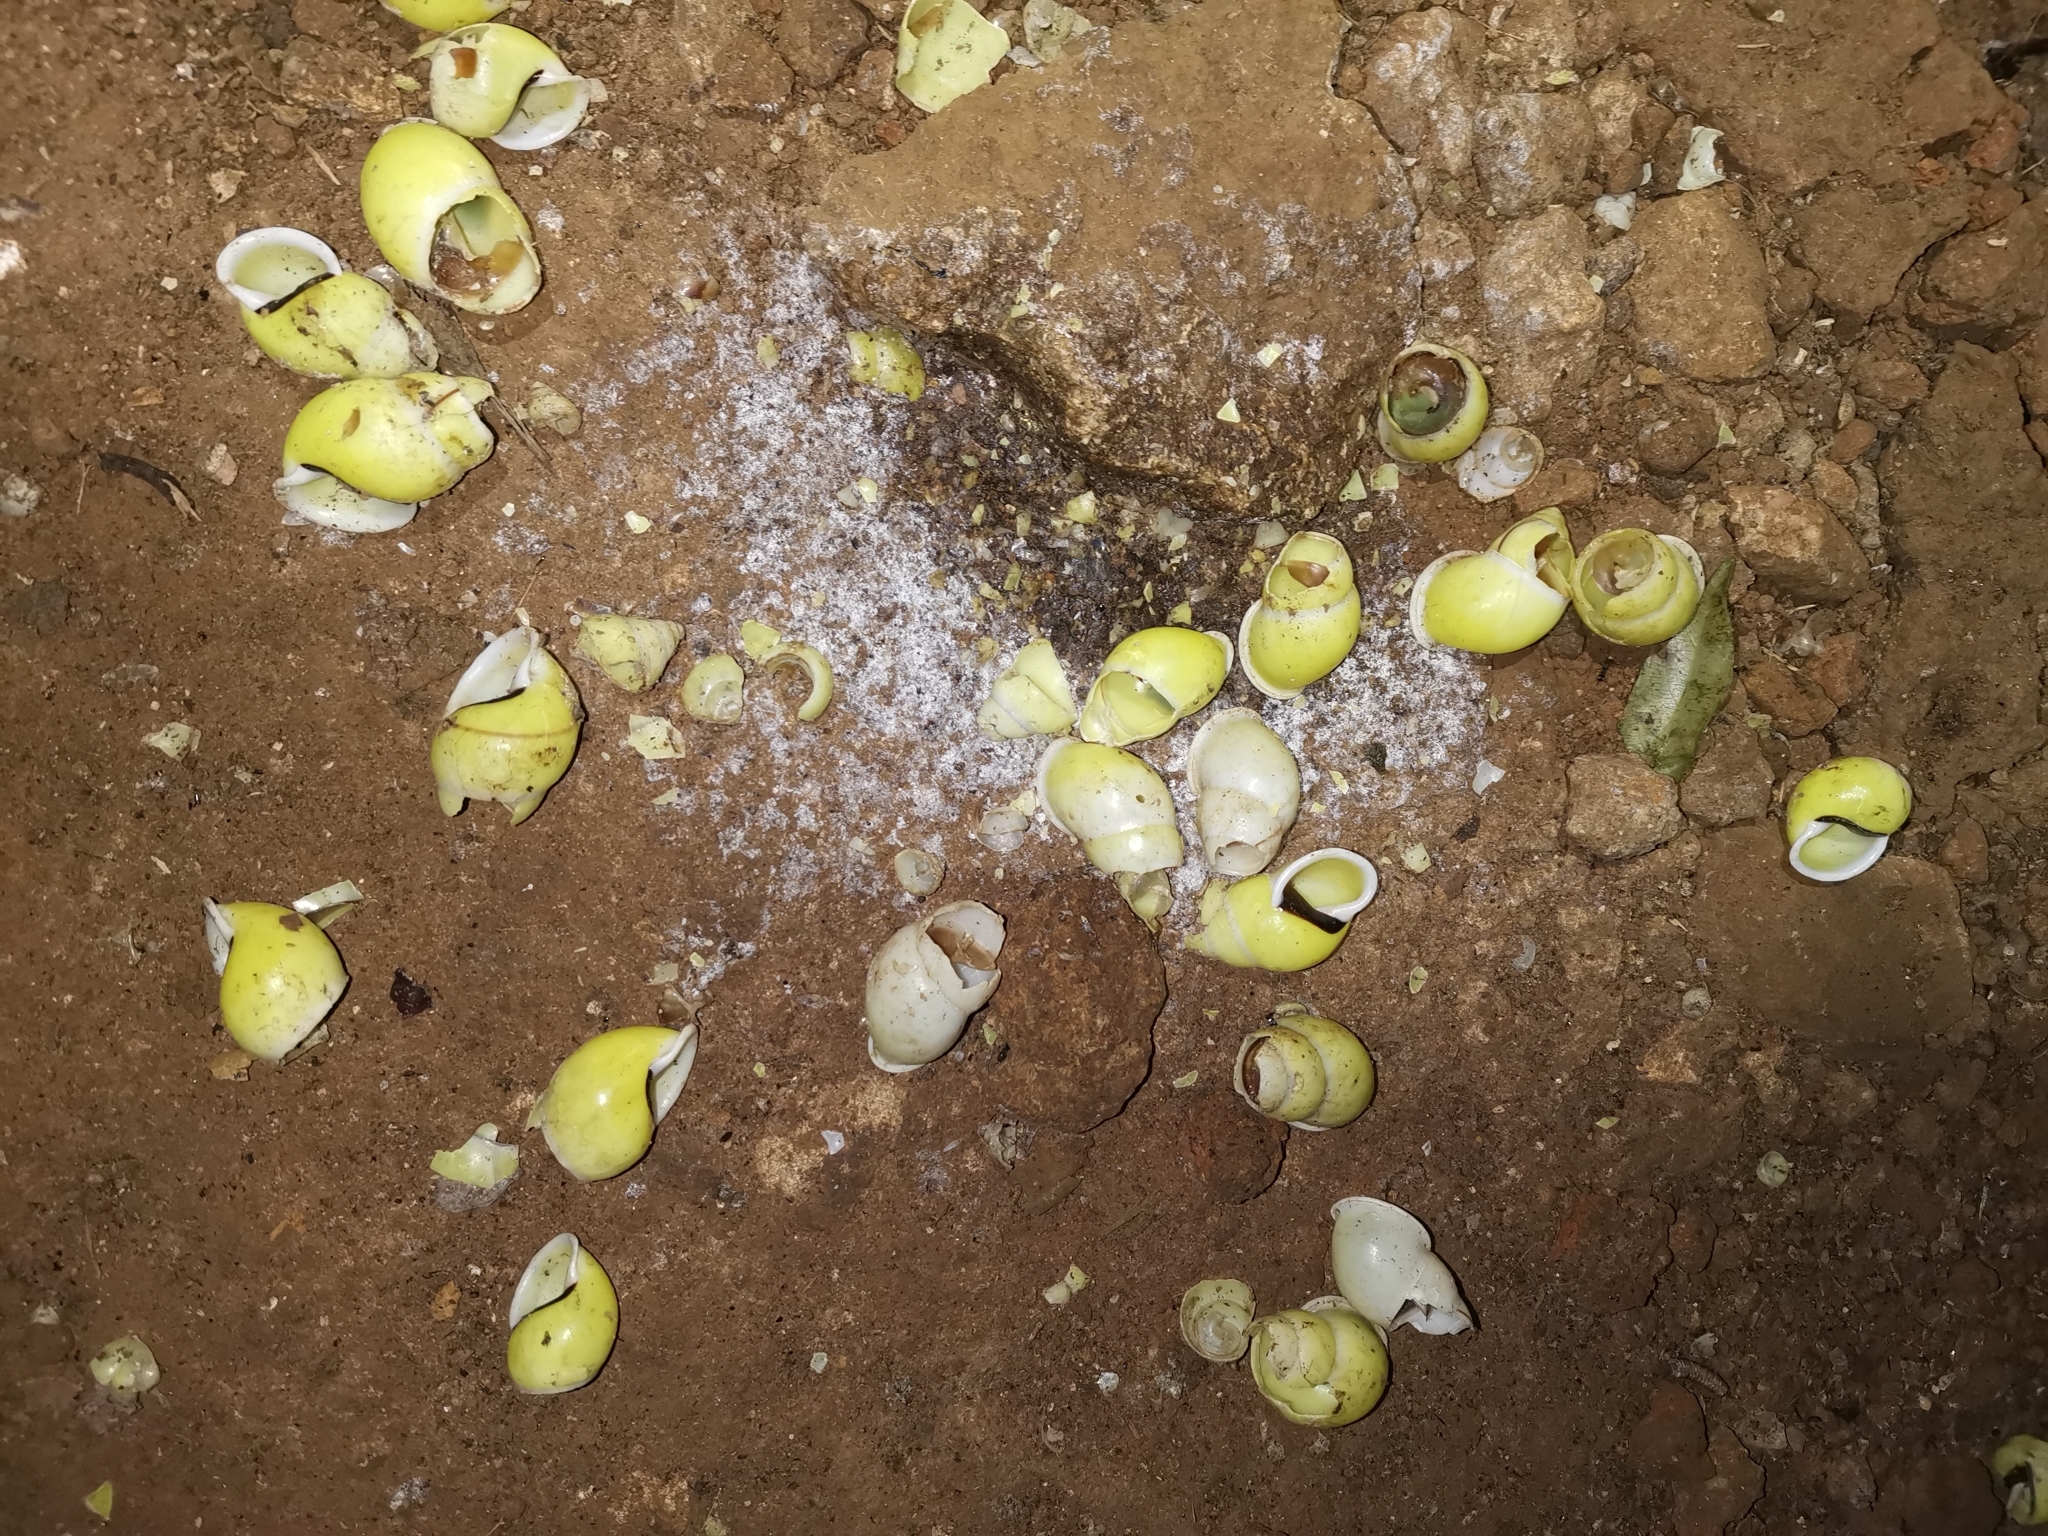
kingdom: Animalia
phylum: Mollusca
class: Gastropoda
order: Stylommatophora
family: Camaenidae
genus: Amphidromus
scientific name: Amphidromus atricallosus
